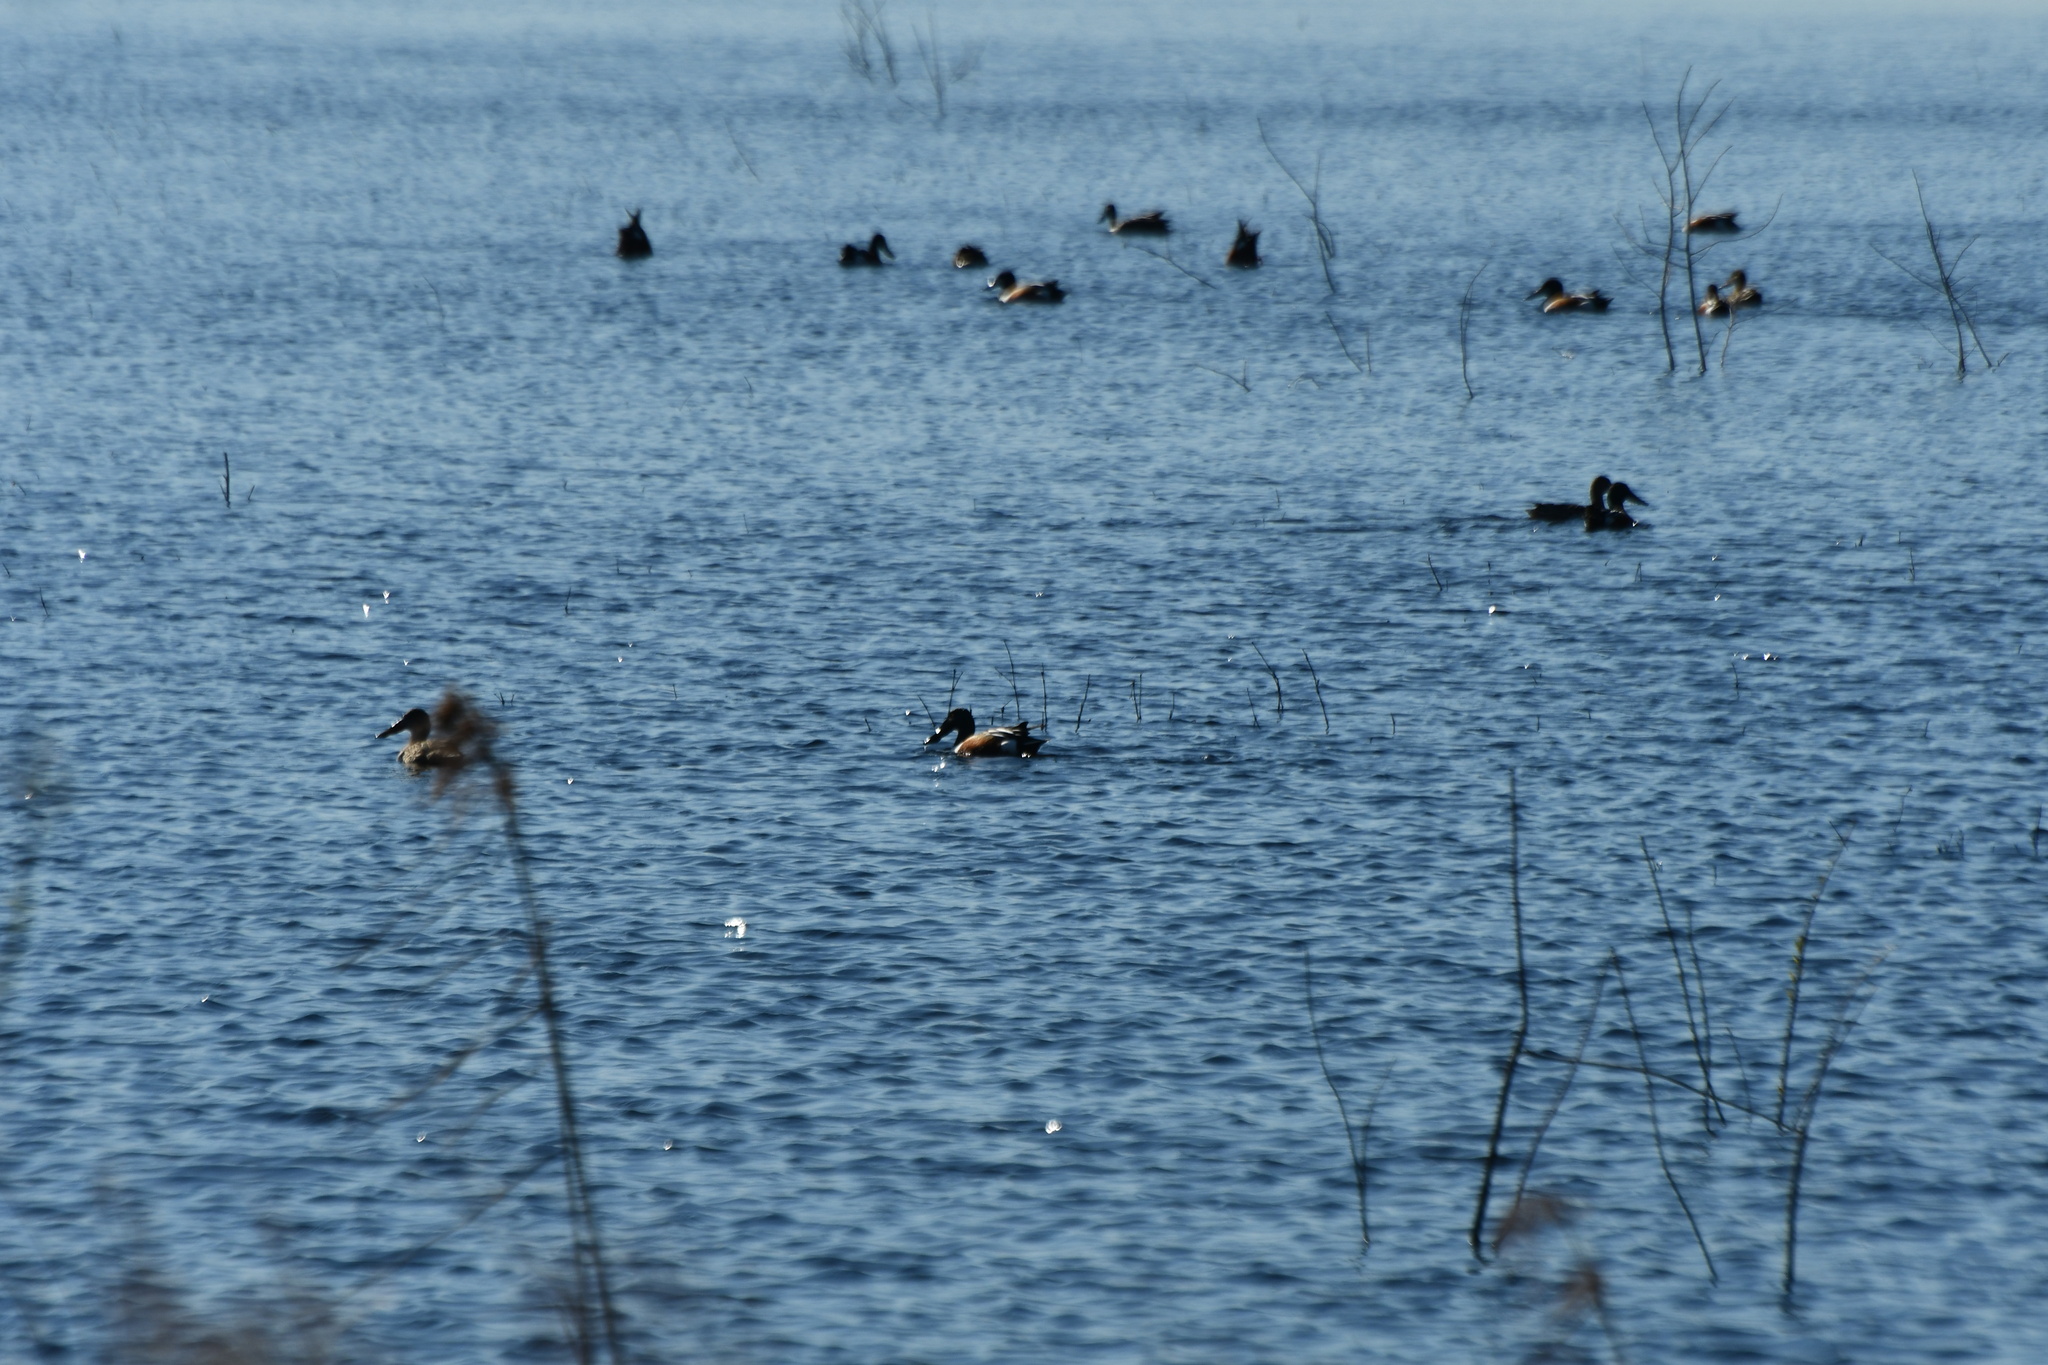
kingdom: Animalia
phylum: Chordata
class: Aves
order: Anseriformes
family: Anatidae
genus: Spatula
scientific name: Spatula clypeata
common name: Northern shoveler
